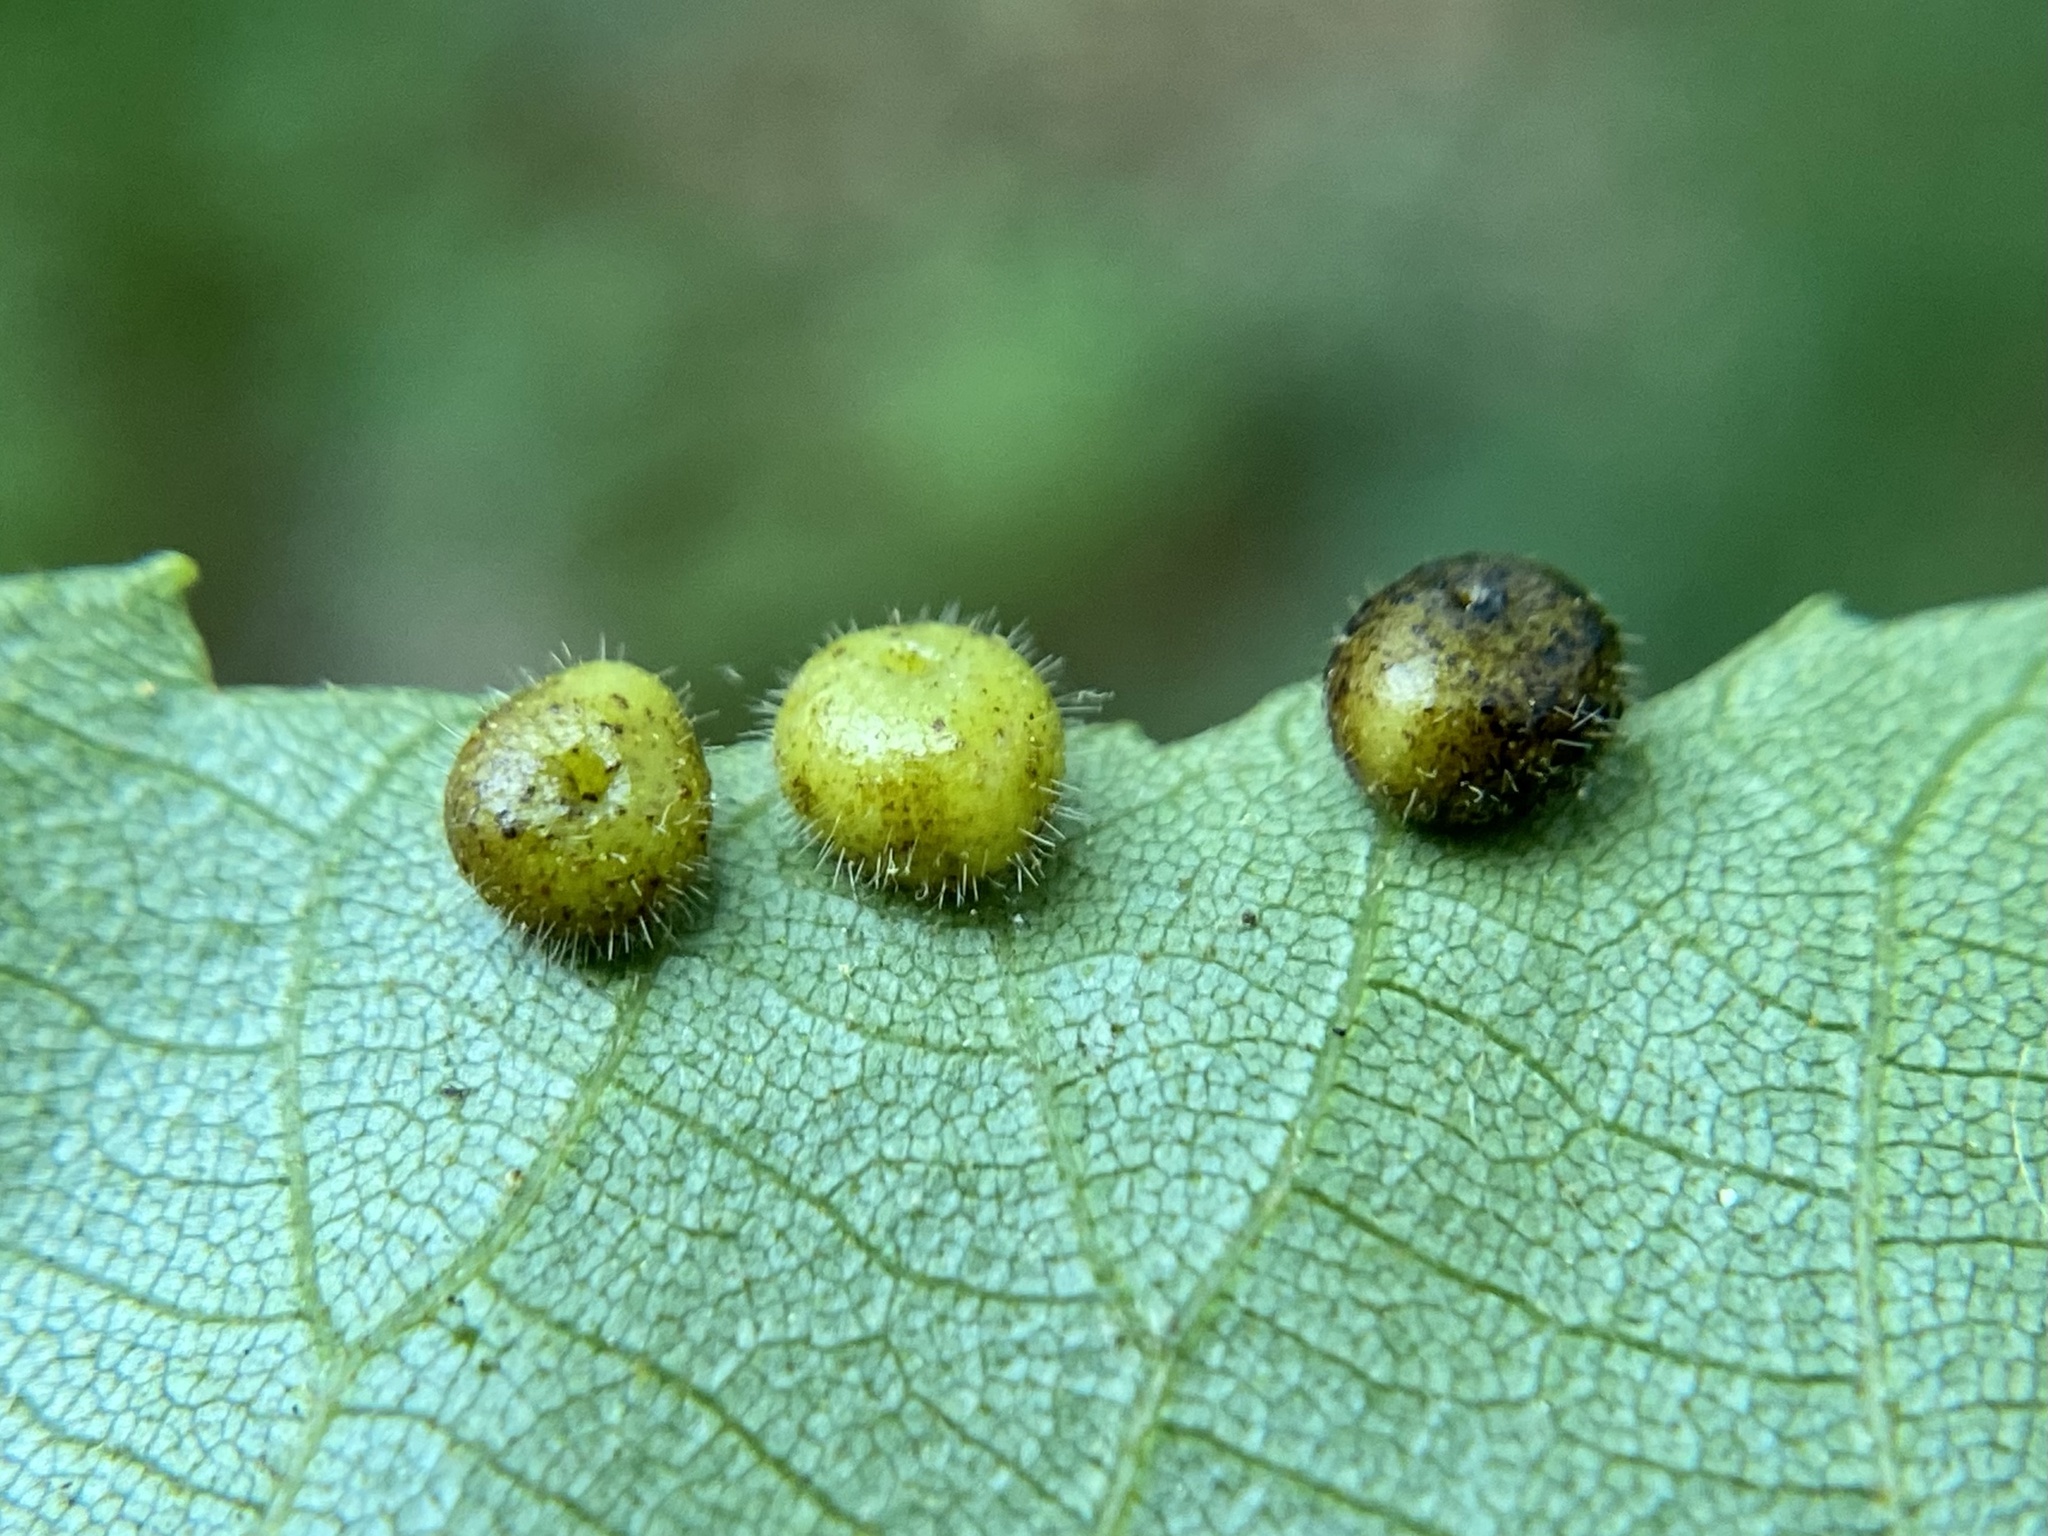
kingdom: Animalia
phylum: Arthropoda
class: Insecta
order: Diptera
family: Cecidomyiidae
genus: Caryomyia
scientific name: Caryomyia thompsoni
